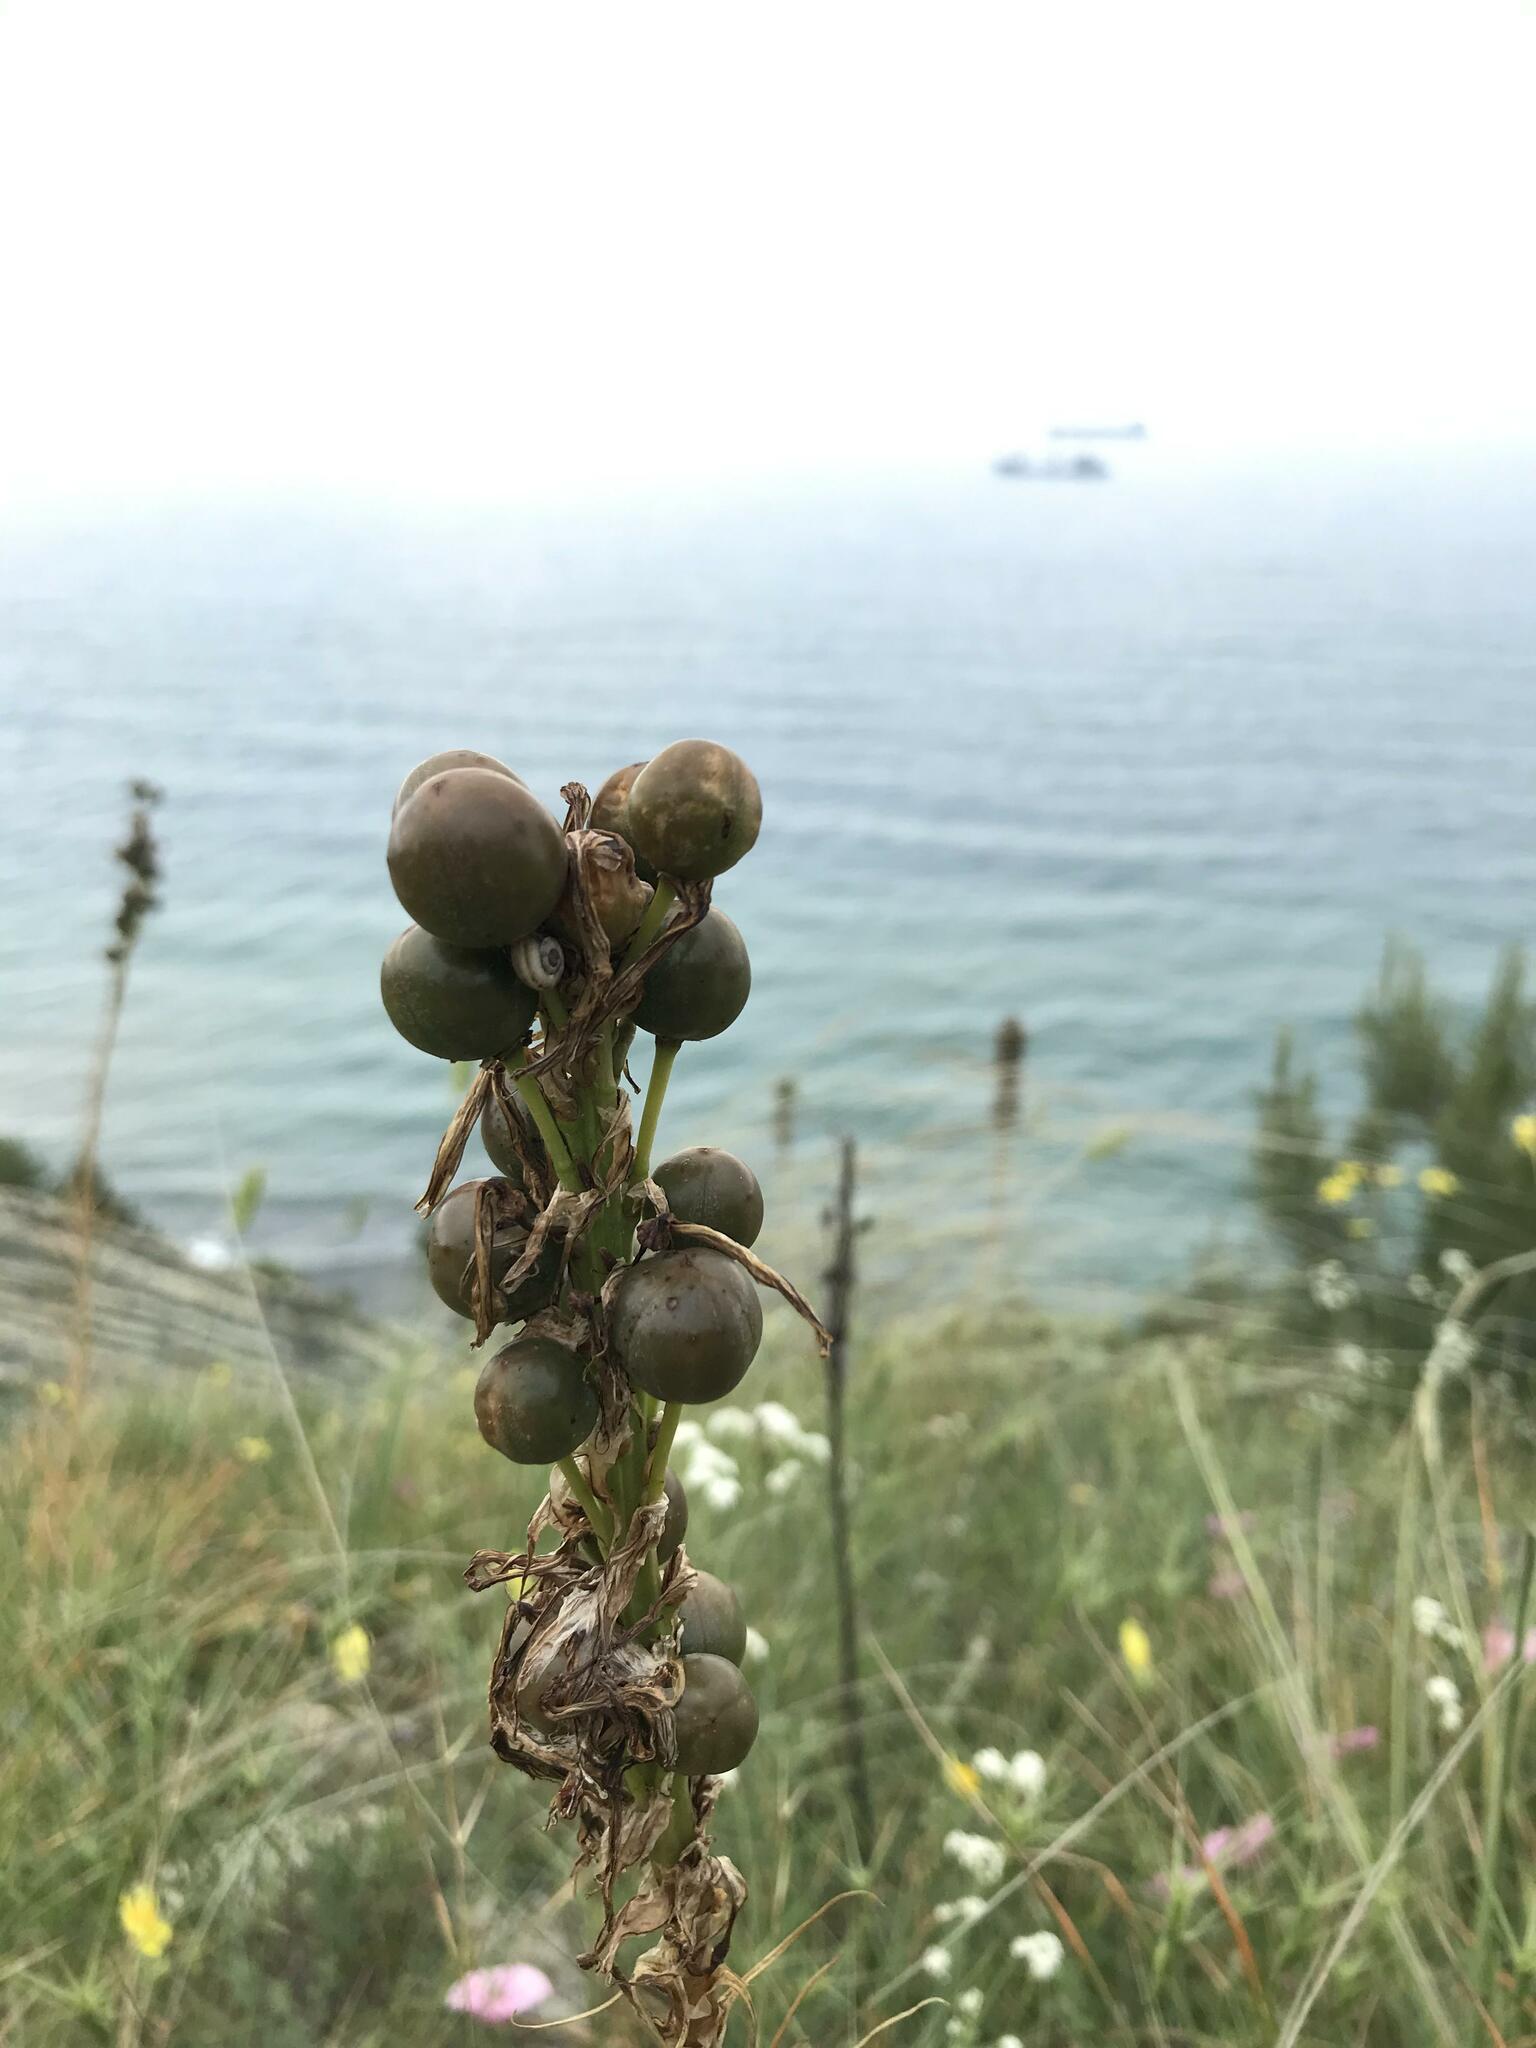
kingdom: Plantae
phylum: Tracheophyta
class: Liliopsida
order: Asparagales
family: Asphodelaceae
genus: Asphodeline
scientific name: Asphodeline lutea
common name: Yellow asphodel
